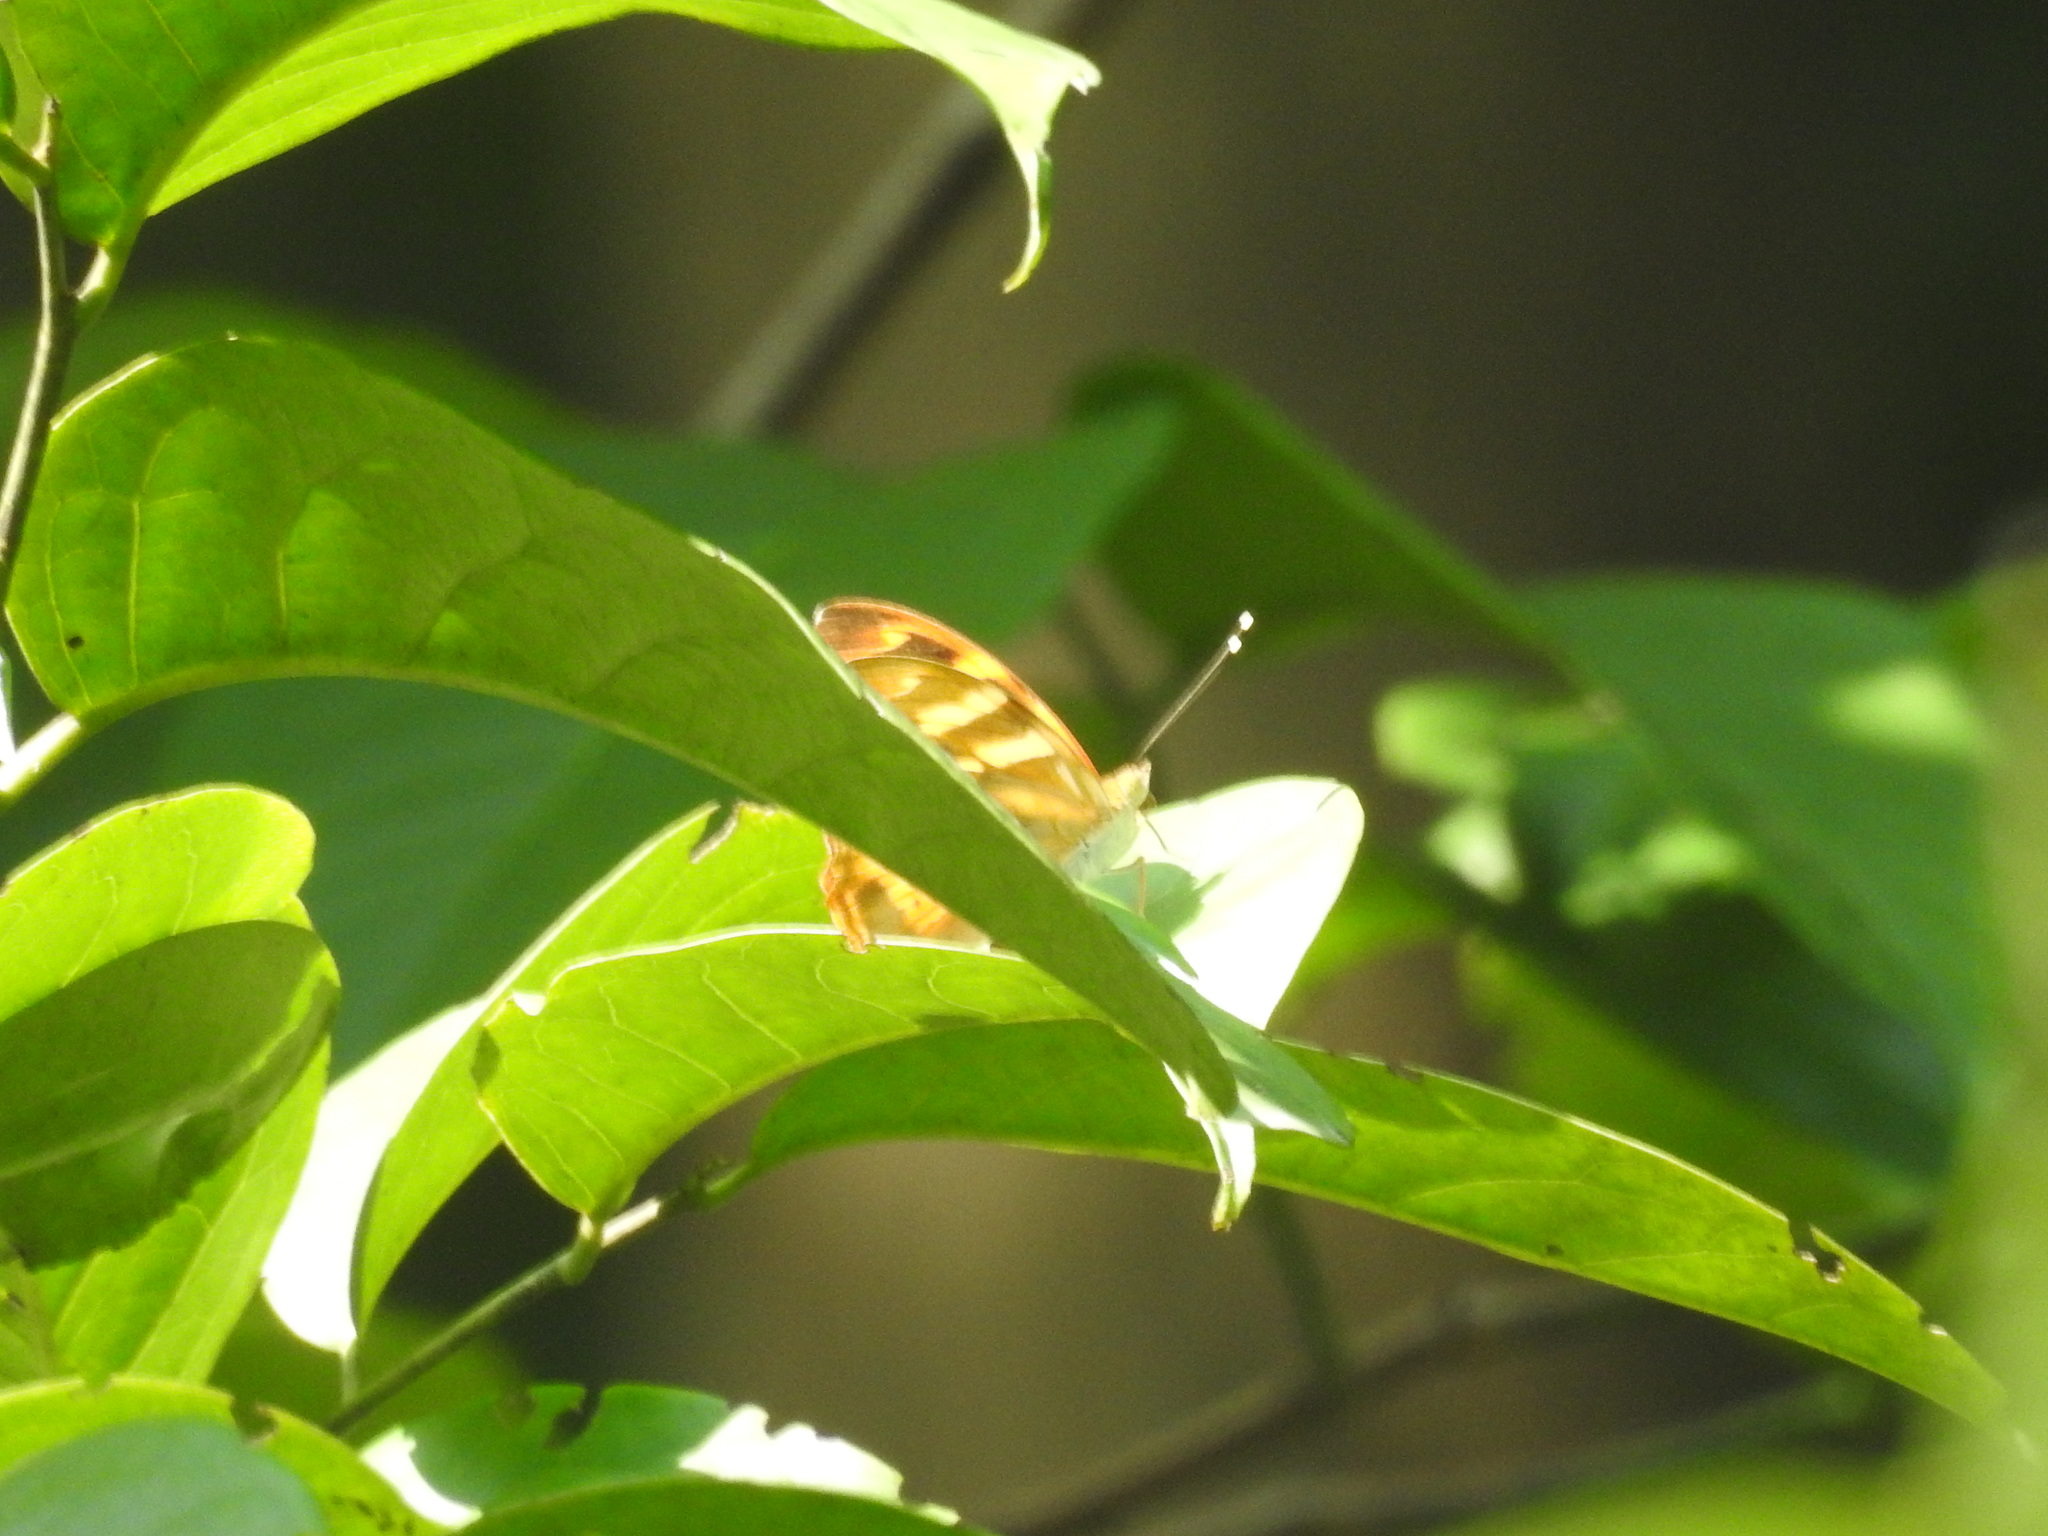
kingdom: Animalia
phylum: Arthropoda
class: Insecta
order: Lepidoptera
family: Nymphalidae
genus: Herona
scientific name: Herona marathus
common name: Yellow pasha
